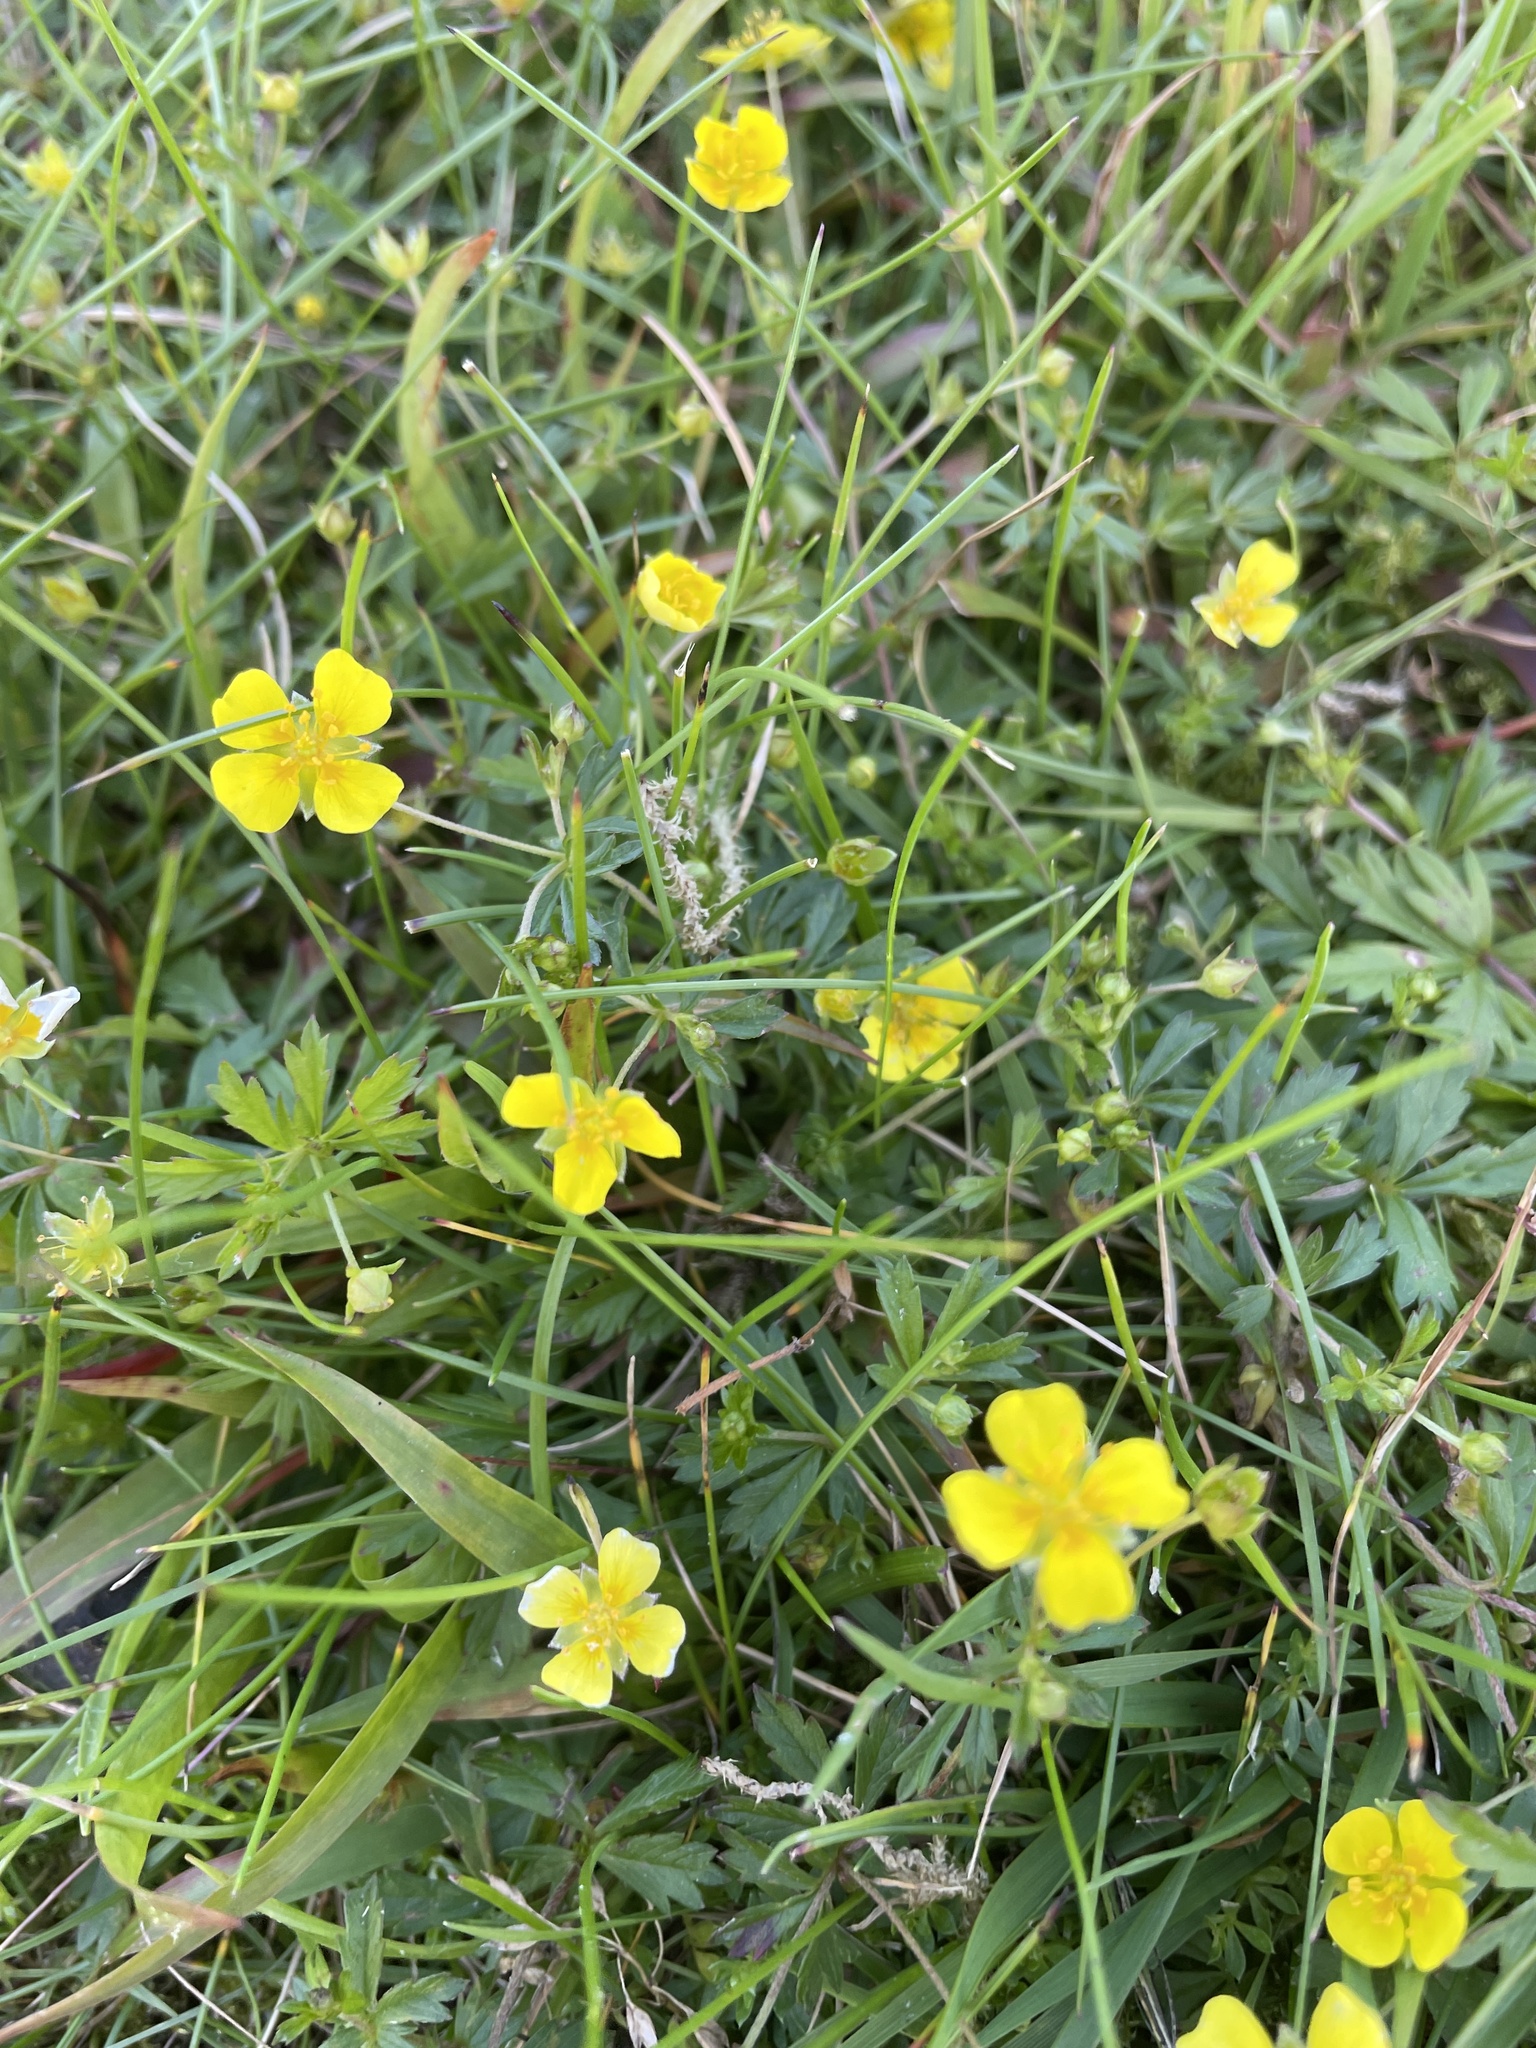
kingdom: Plantae
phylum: Tracheophyta
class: Magnoliopsida
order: Rosales
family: Rosaceae
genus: Potentilla
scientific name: Potentilla erecta
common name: Tormentil
